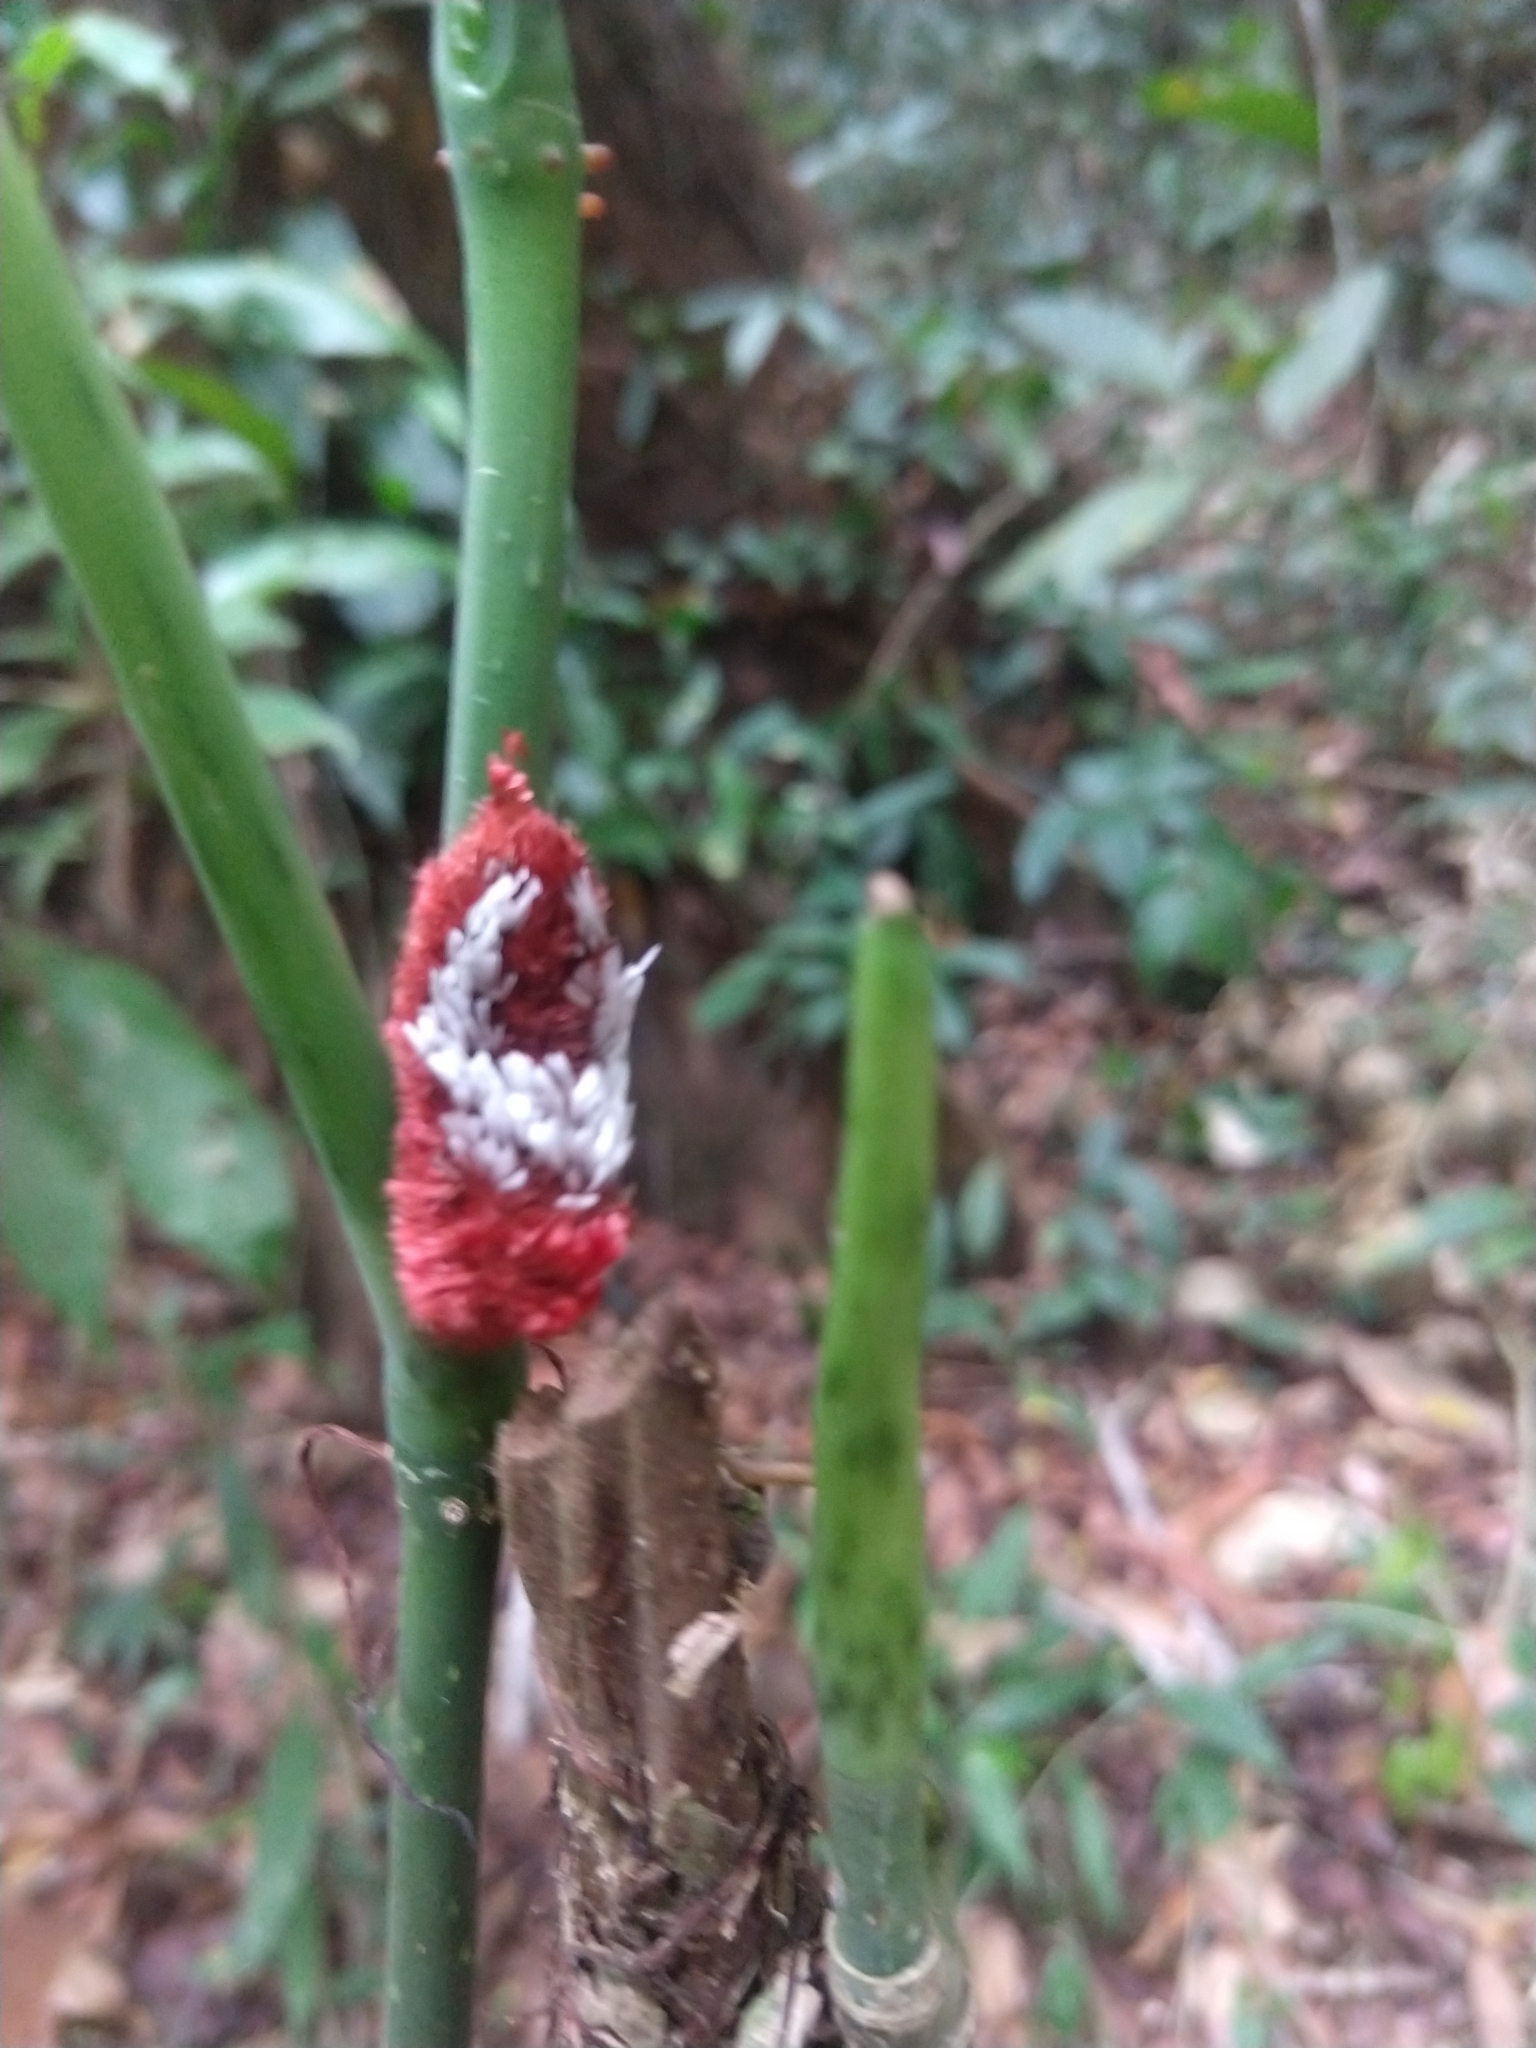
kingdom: Animalia
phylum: Arthropoda
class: Insecta
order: Lepidoptera
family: Bombycidae
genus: Prothysana
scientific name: Prothysana
